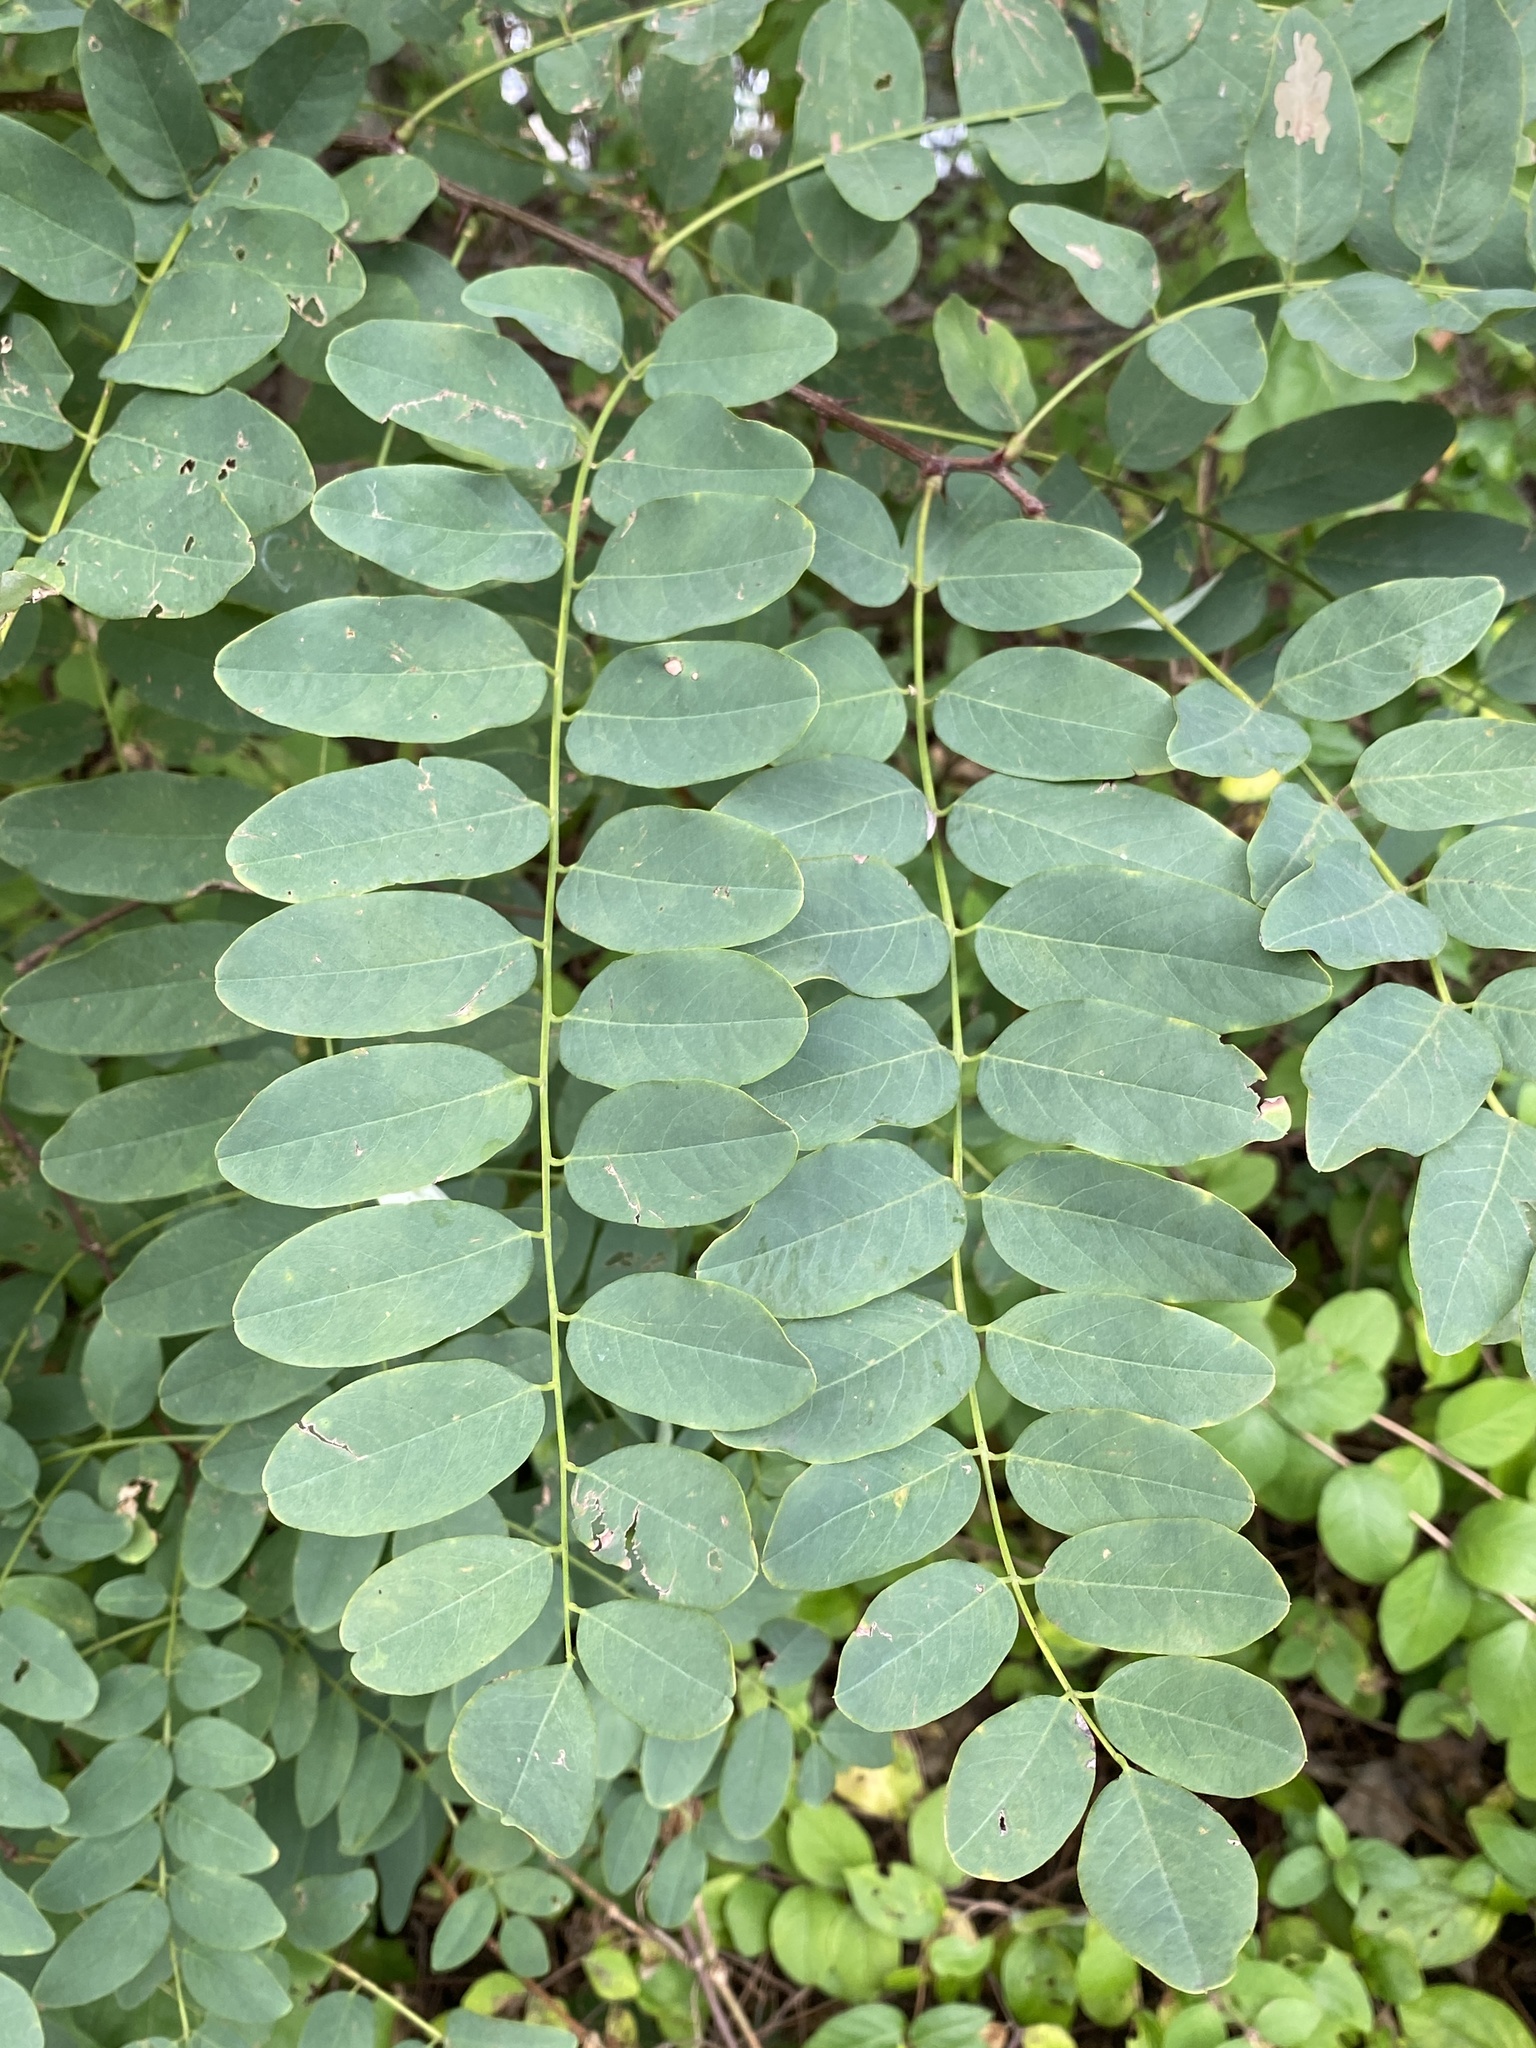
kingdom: Plantae
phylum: Tracheophyta
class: Magnoliopsida
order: Fabales
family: Fabaceae
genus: Robinia
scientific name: Robinia pseudoacacia
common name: Black locust
